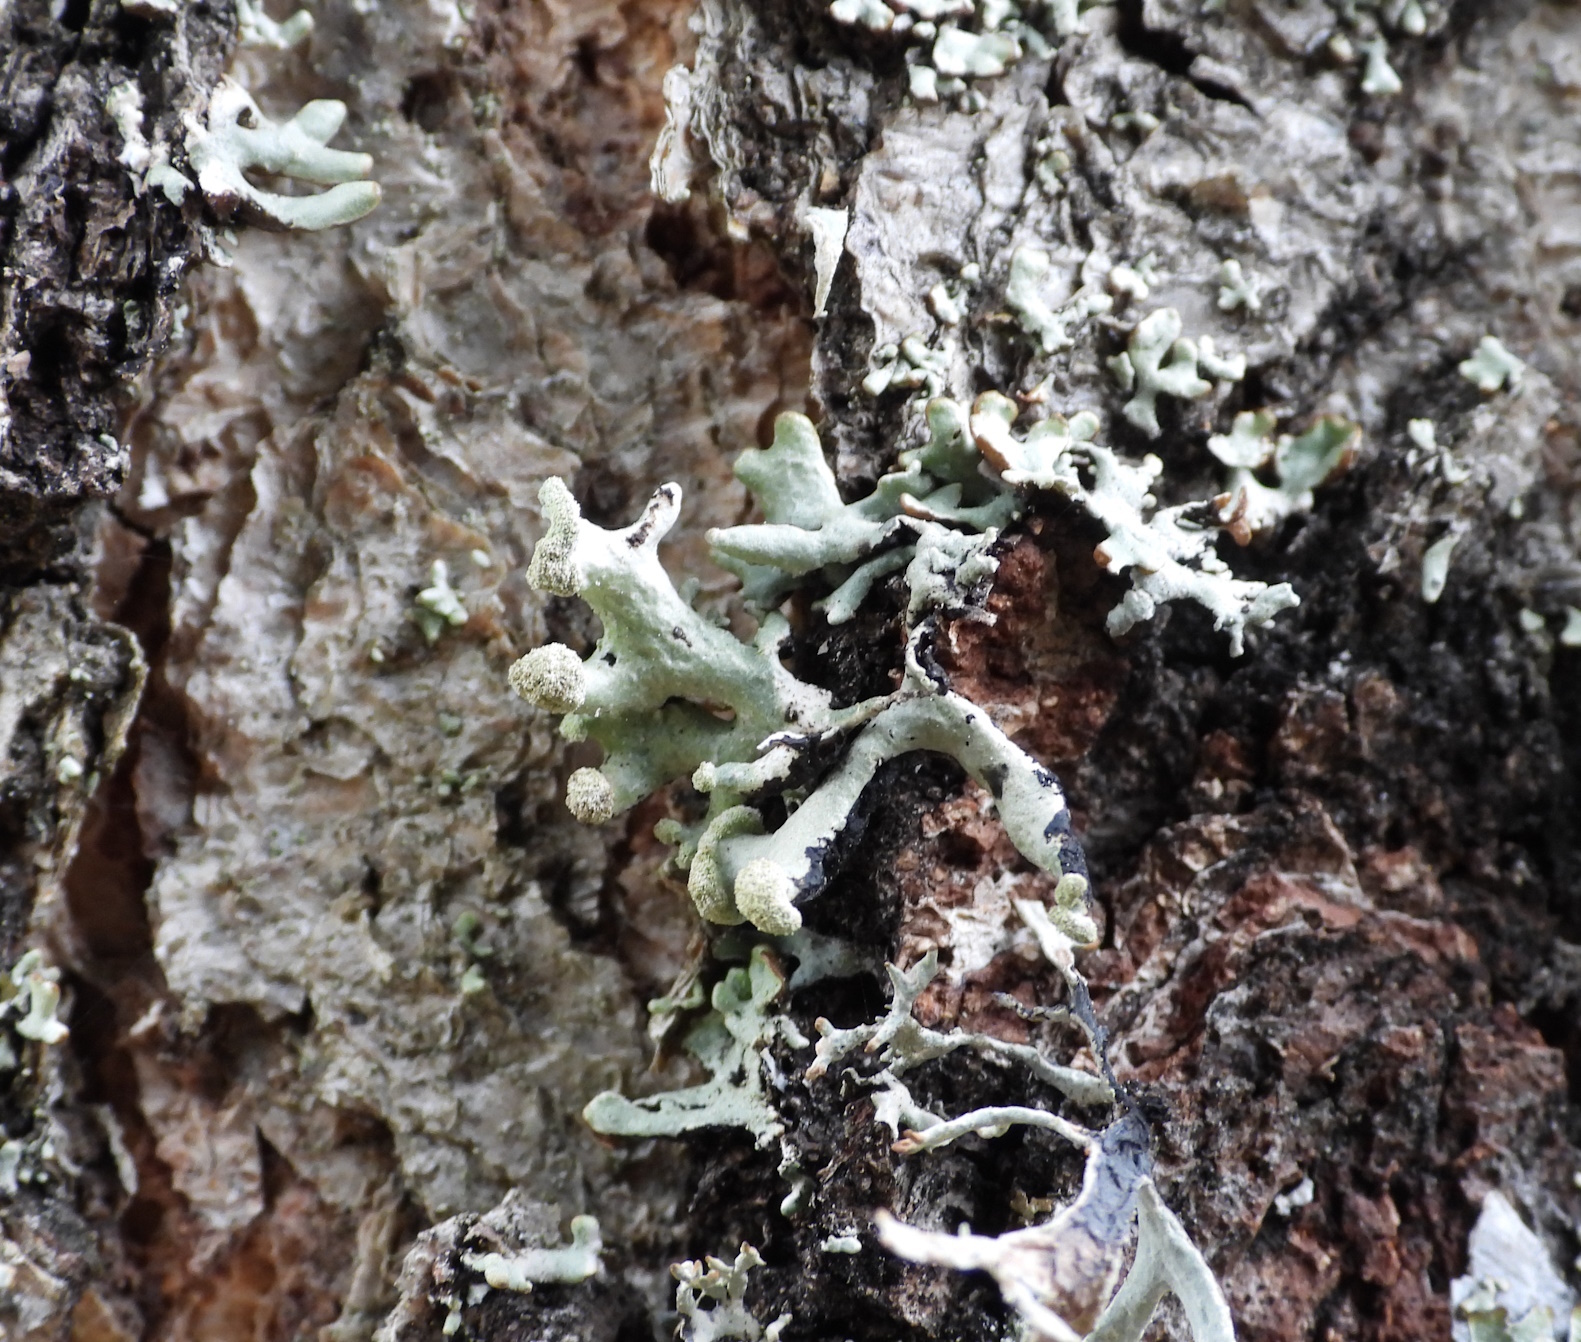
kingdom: Fungi
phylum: Ascomycota
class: Lecanoromycetes
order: Lecanorales
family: Parmeliaceae
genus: Hypogymnia
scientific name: Hypogymnia tubulosa
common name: Powder-headed tube lichen
